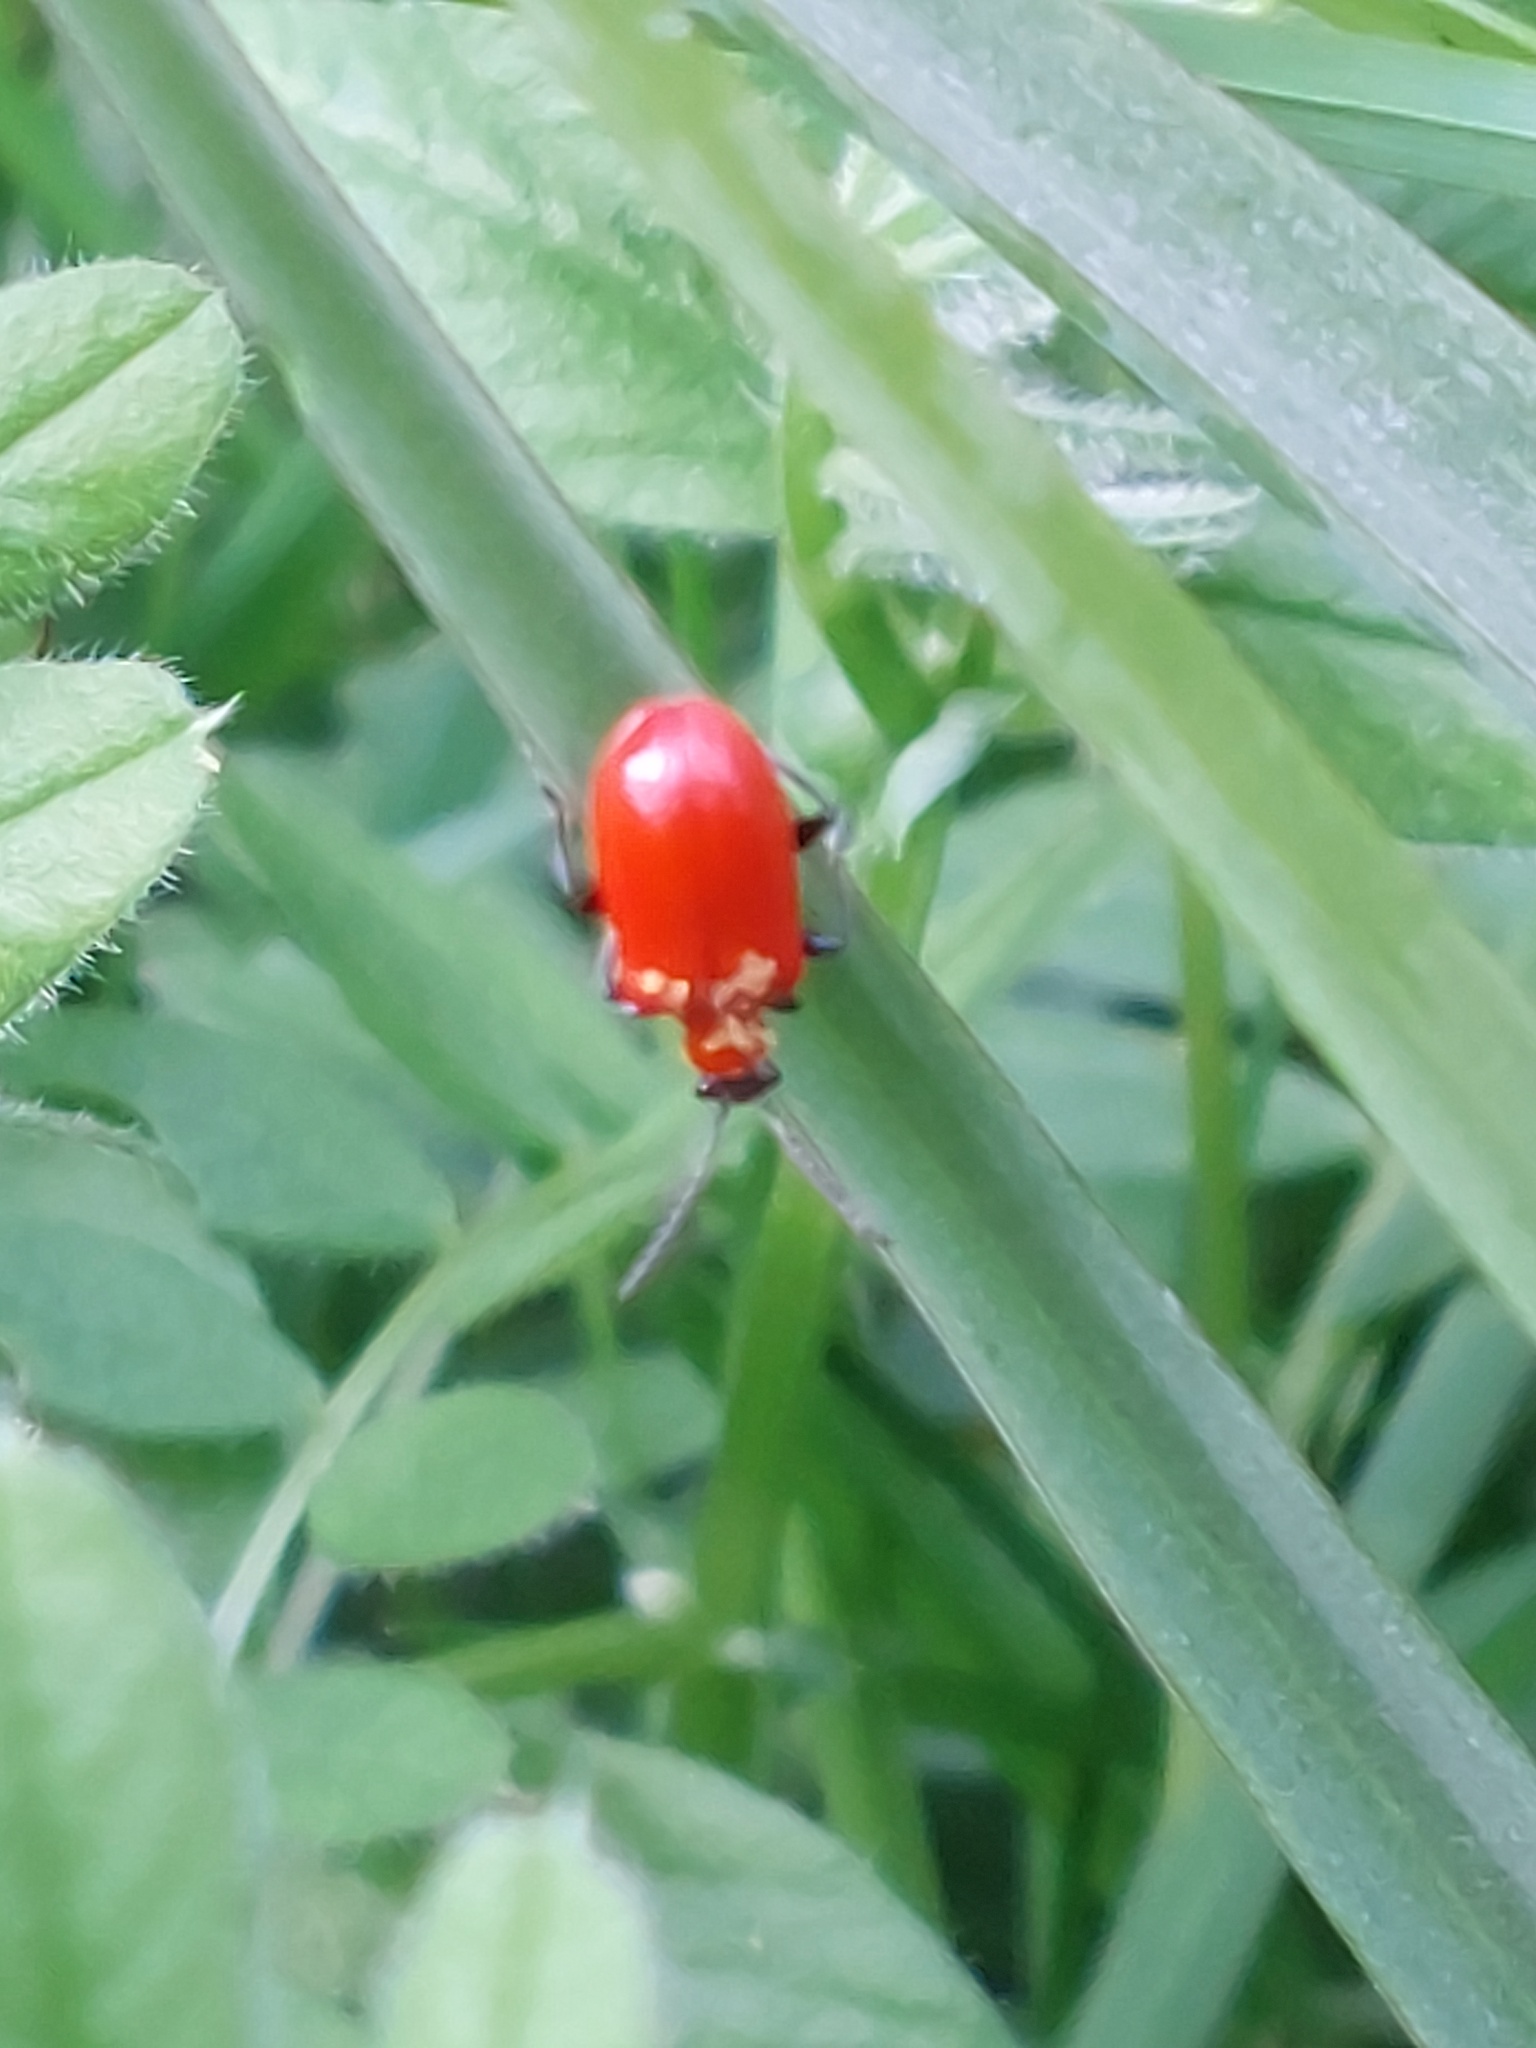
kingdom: Animalia
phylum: Arthropoda
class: Insecta
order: Coleoptera
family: Chrysomelidae
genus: Lilioceris
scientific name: Lilioceris lilii
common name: Lily beetle
